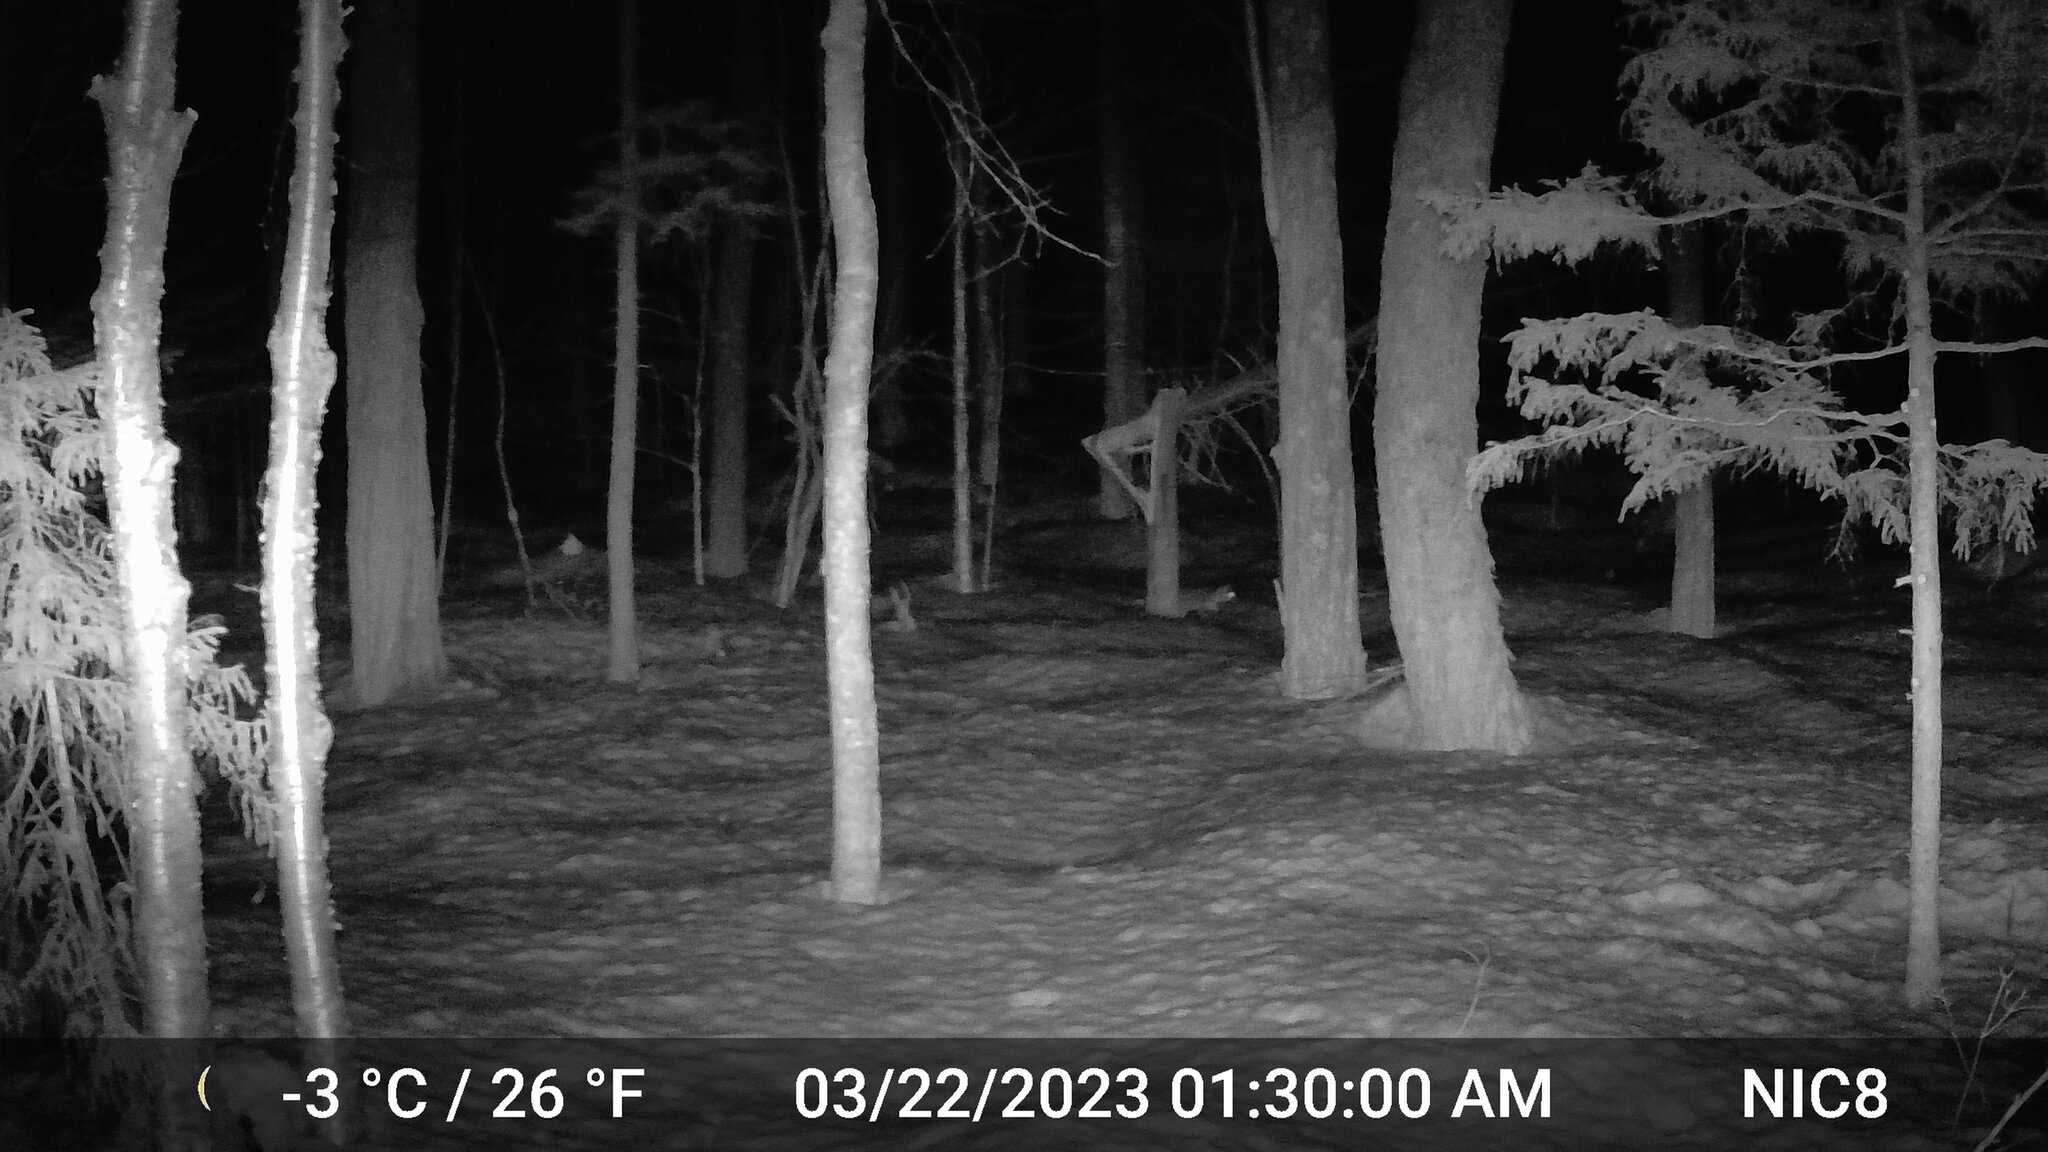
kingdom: Animalia
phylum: Chordata
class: Mammalia
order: Carnivora
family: Canidae
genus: Vulpes
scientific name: Vulpes vulpes
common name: Red fox
